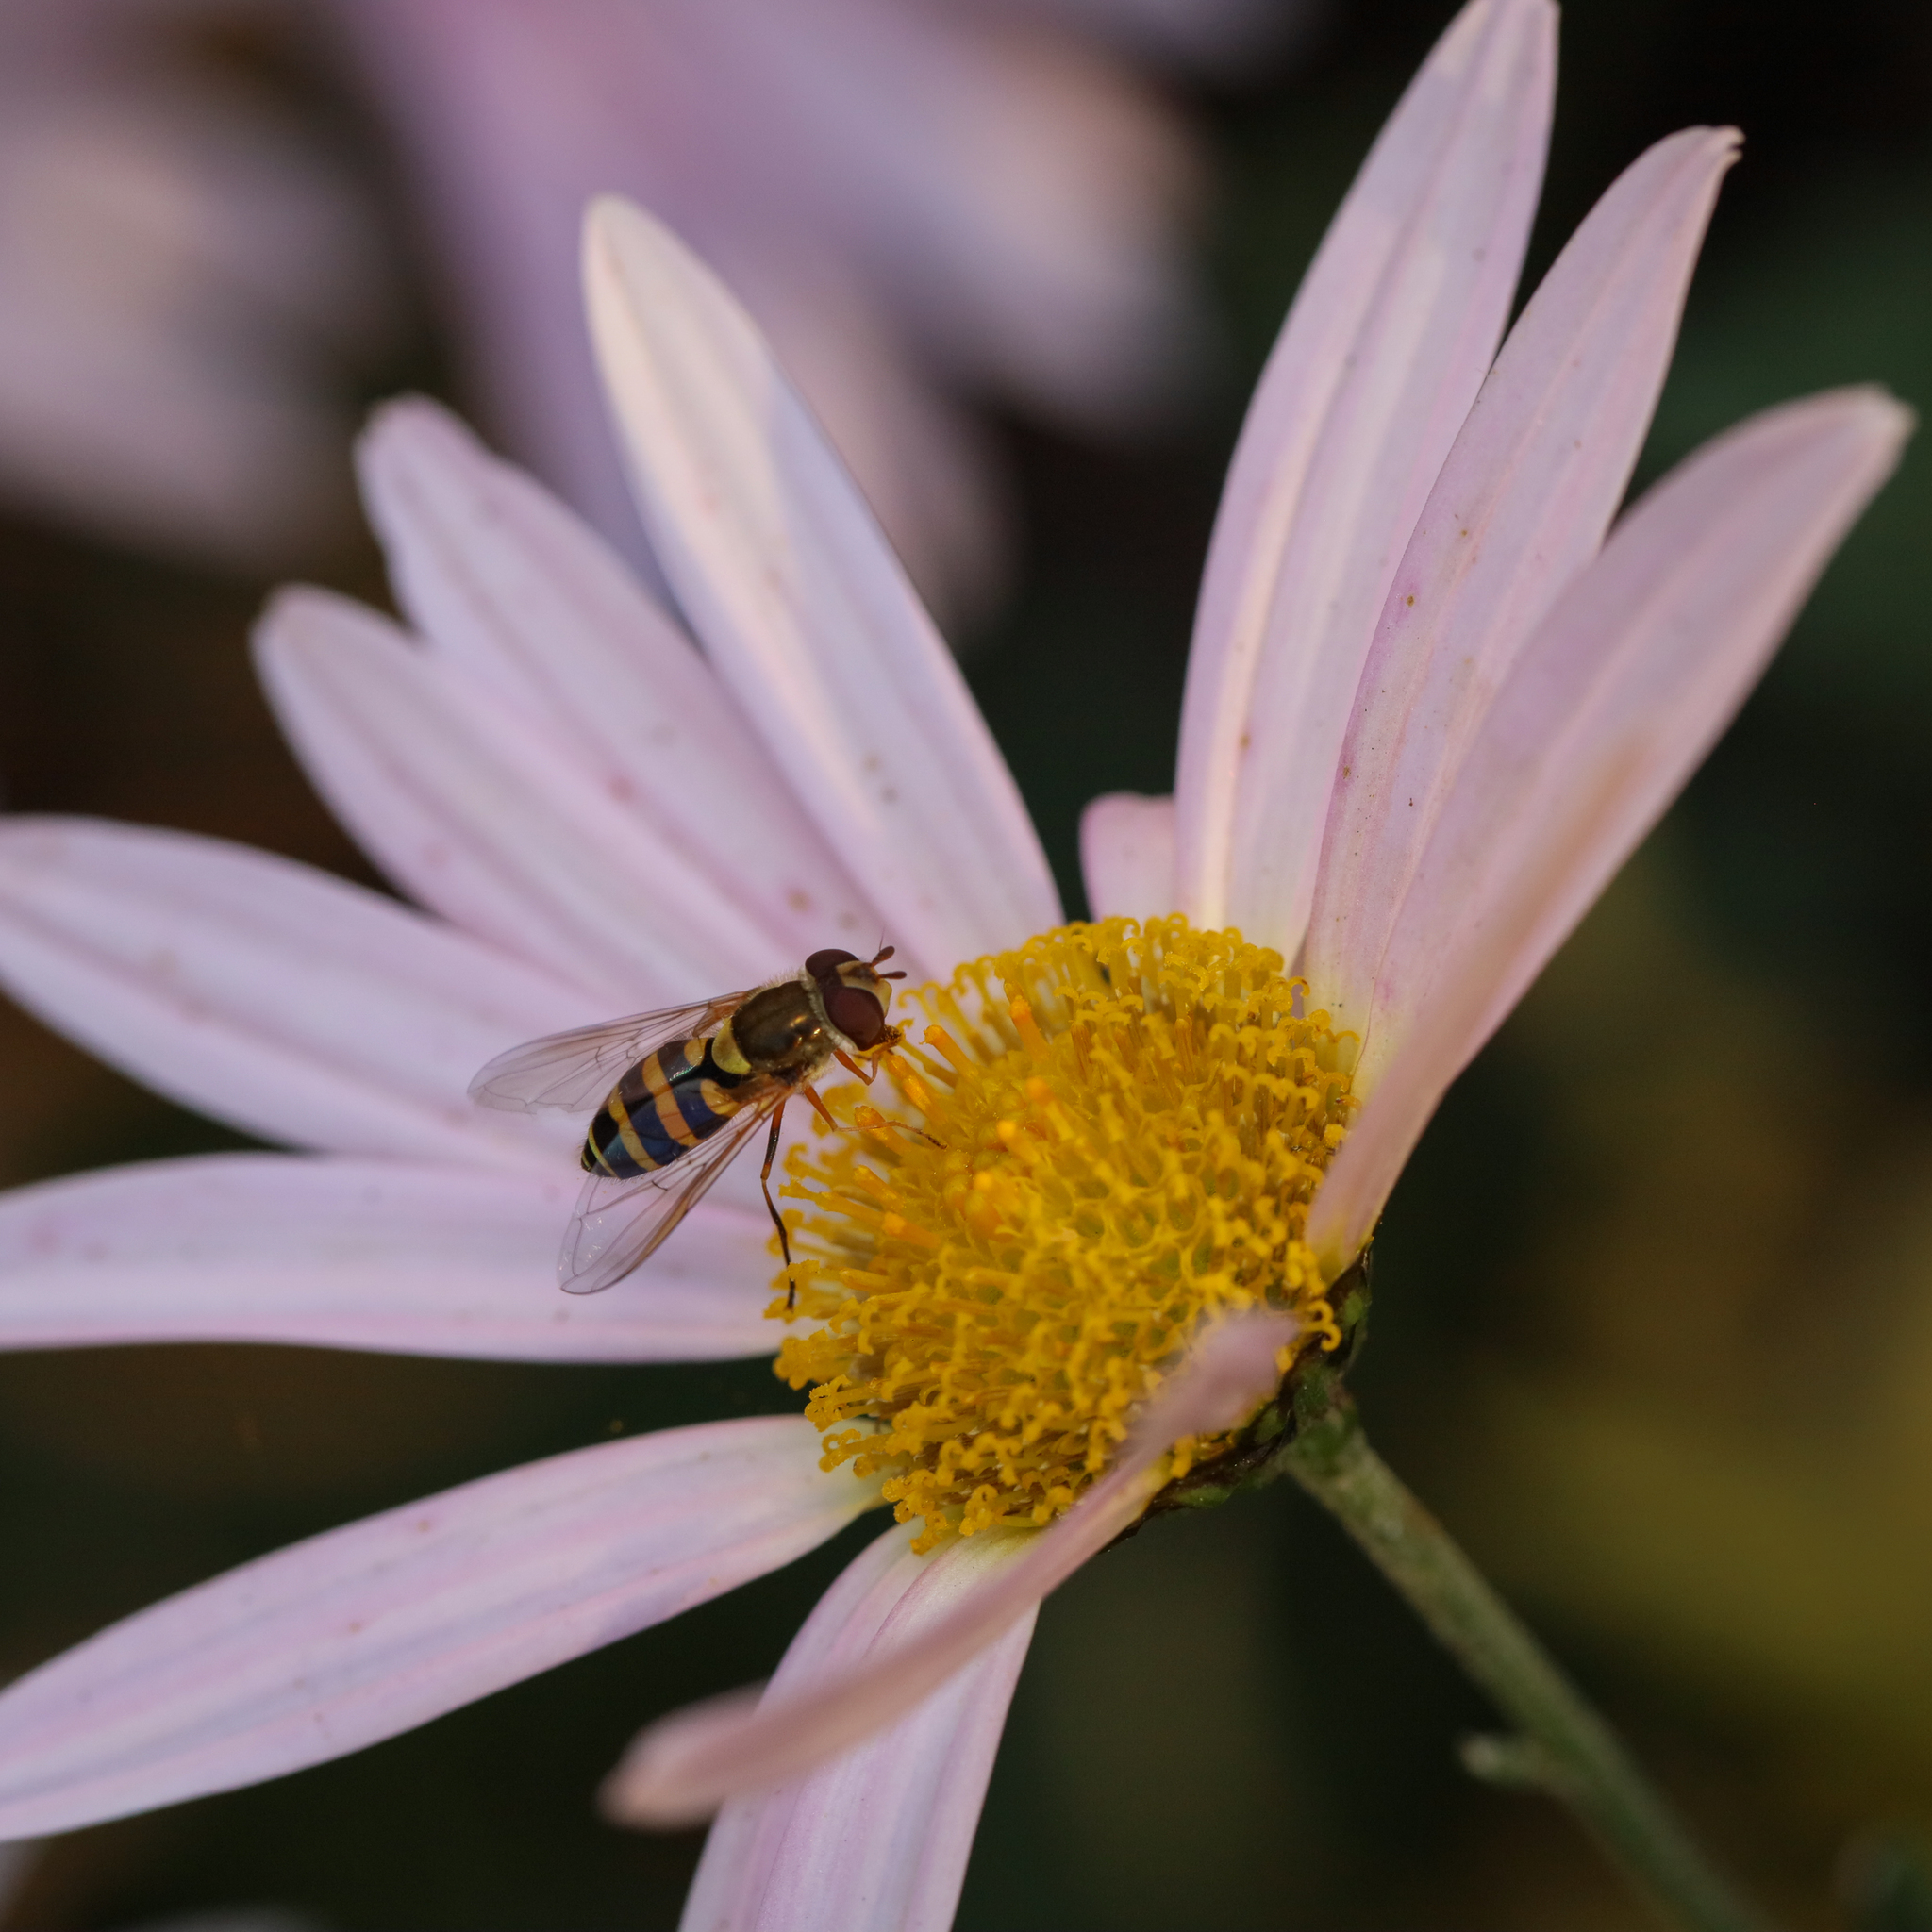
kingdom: Animalia
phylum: Arthropoda
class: Insecta
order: Diptera
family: Syrphidae
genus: Syrphus
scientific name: Syrphus rectus
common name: Yellow-legged flower fly
